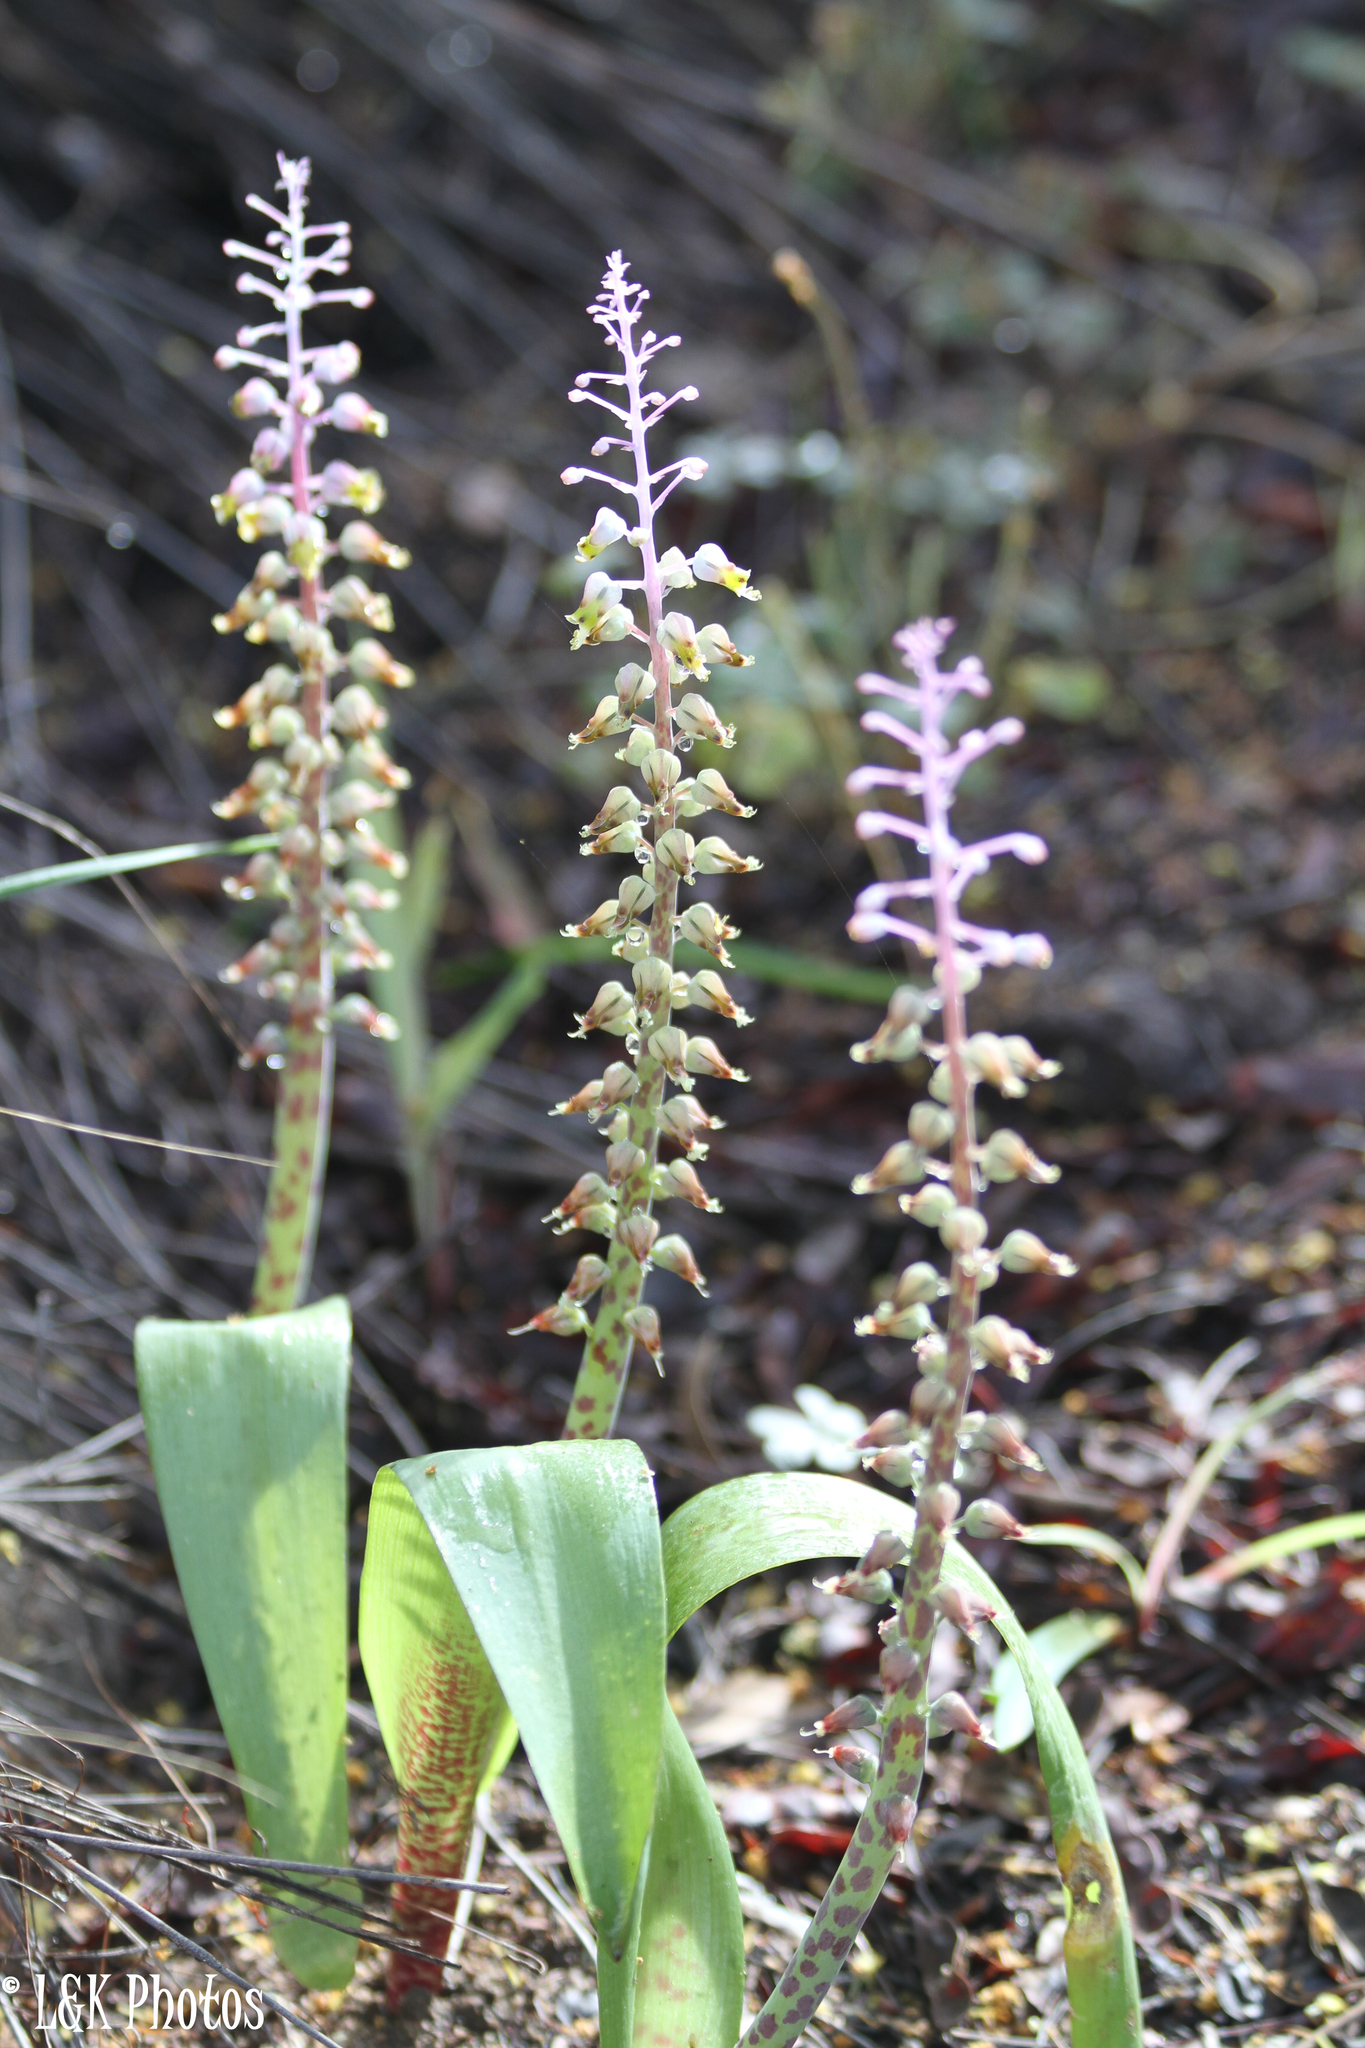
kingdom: Plantae
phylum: Tracheophyta
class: Liliopsida
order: Asparagales
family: Asparagaceae
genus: Lachenalia
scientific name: Lachenalia mutabilis
